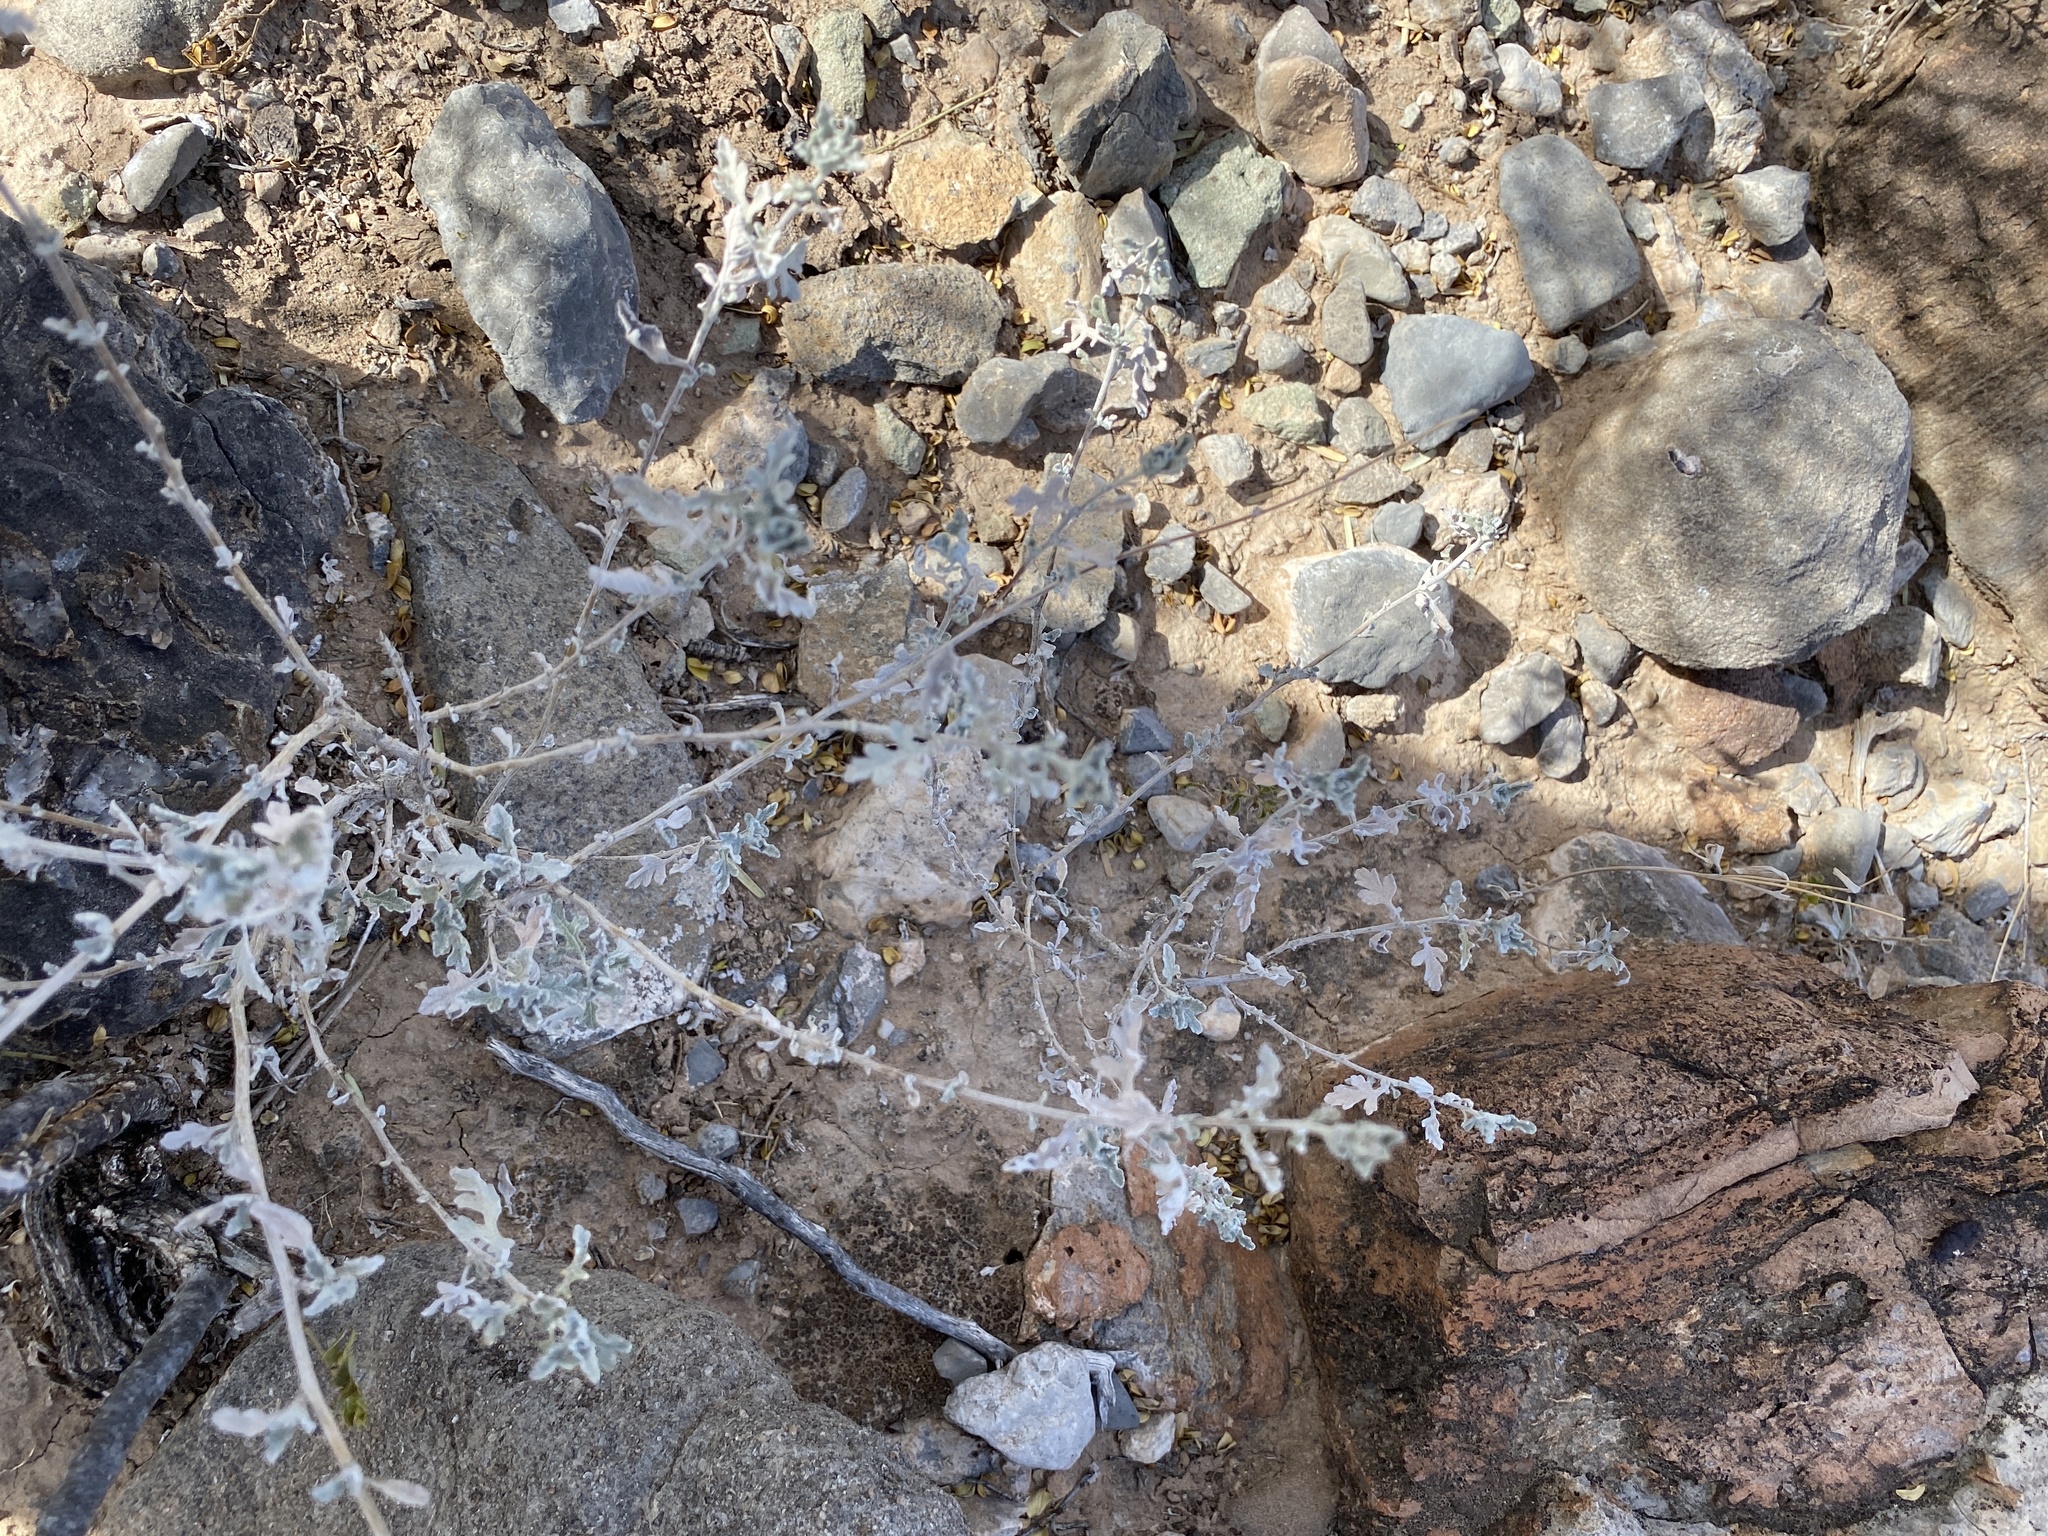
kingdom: Plantae
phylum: Tracheophyta
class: Magnoliopsida
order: Asterales
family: Asteraceae
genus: Parthenium
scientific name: Parthenium incanum
